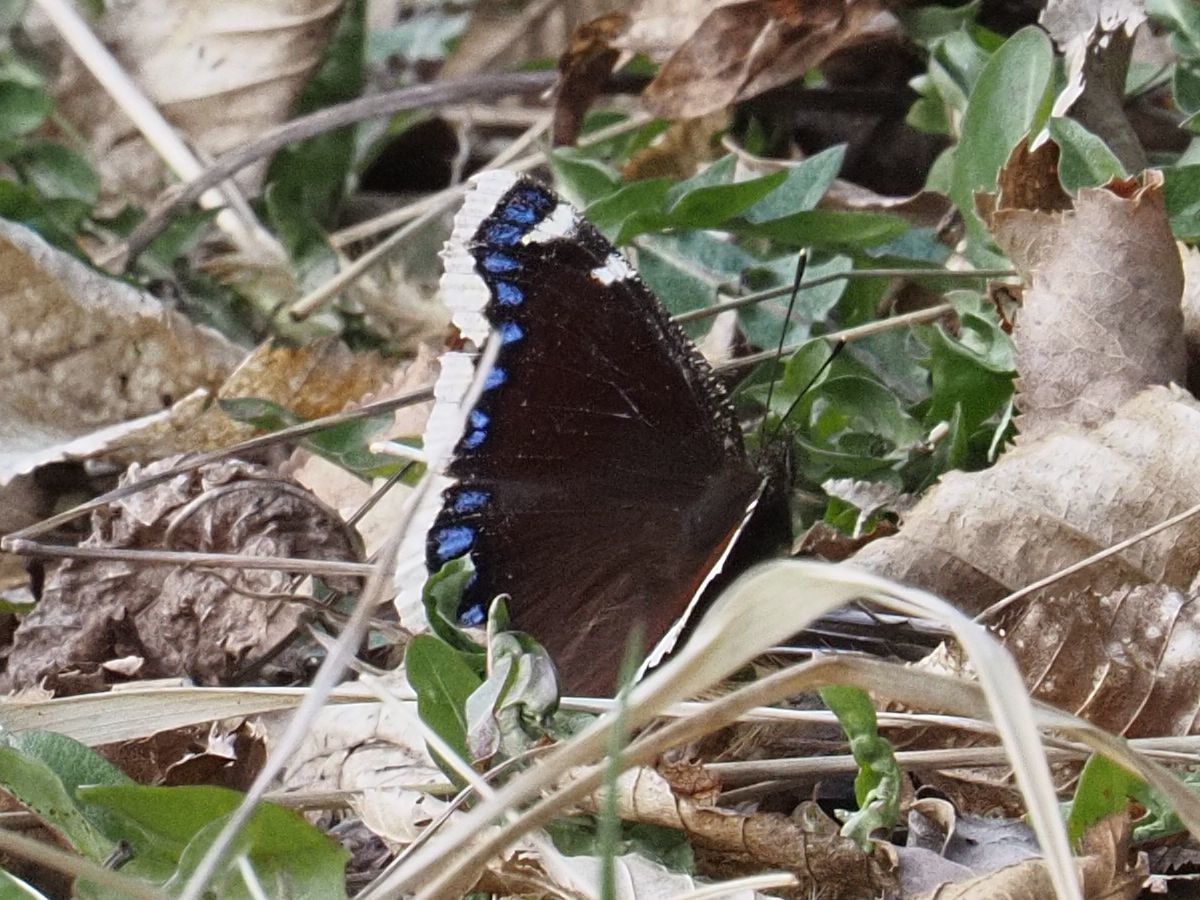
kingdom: Animalia
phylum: Arthropoda
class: Insecta
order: Lepidoptera
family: Nymphalidae
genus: Nymphalis
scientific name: Nymphalis antiopa
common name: Camberwell beauty
